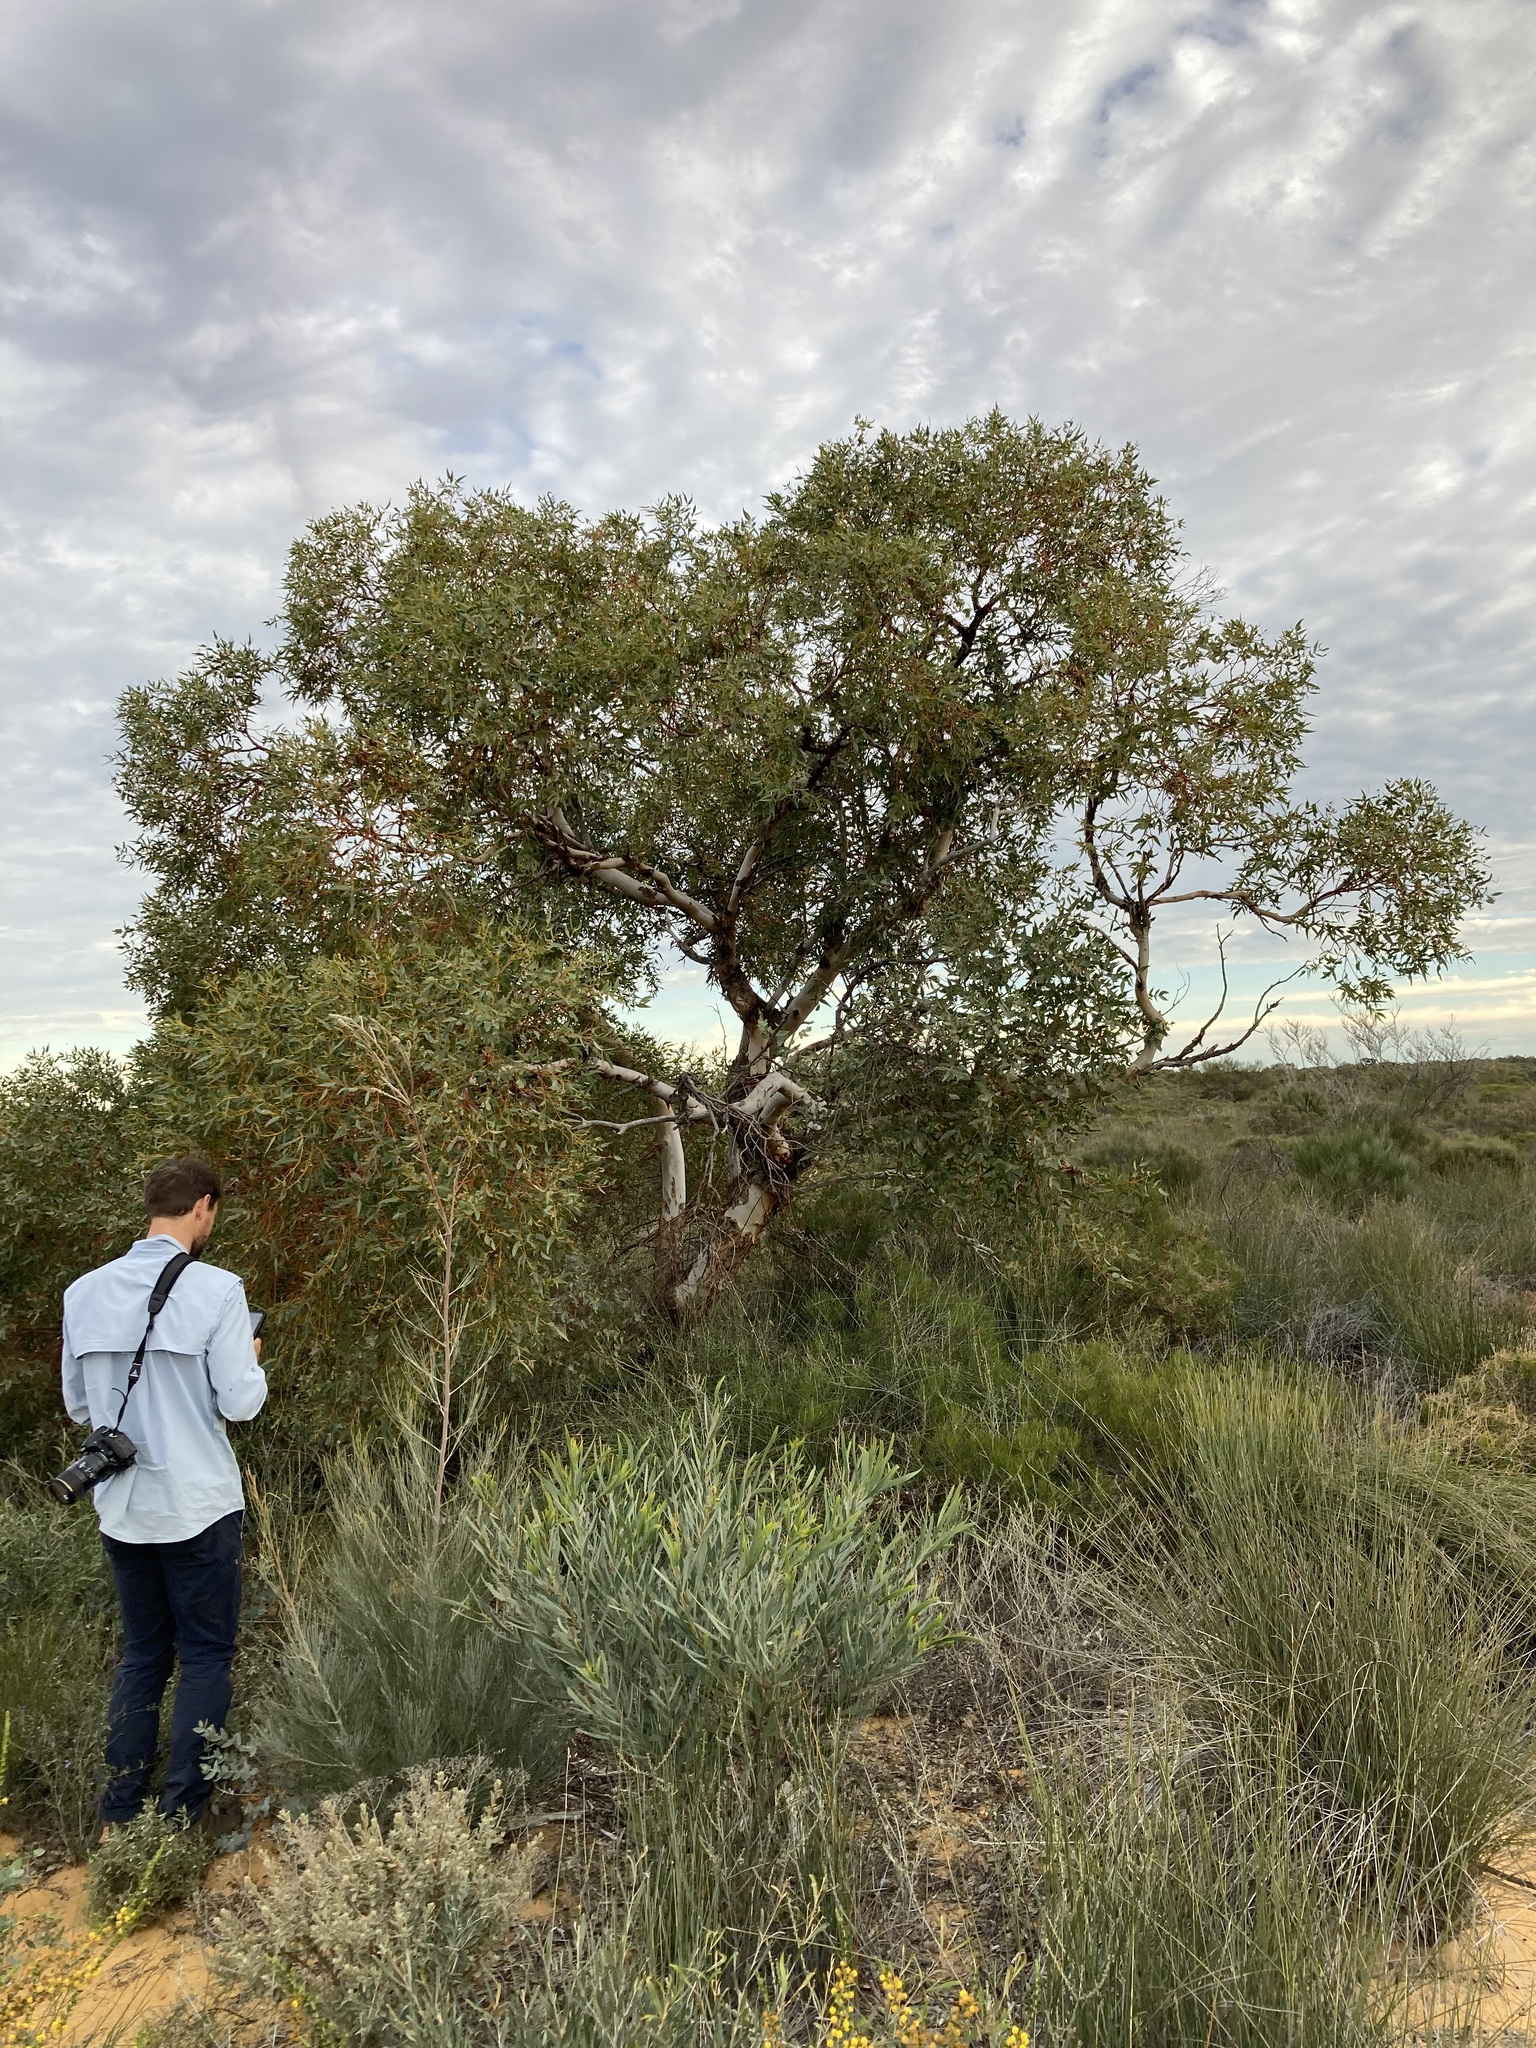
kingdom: Plantae
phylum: Tracheophyta
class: Magnoliopsida
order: Myrtales
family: Myrtaceae
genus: Eucalyptus
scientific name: Eucalyptus eudesmioides
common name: Desert gum
